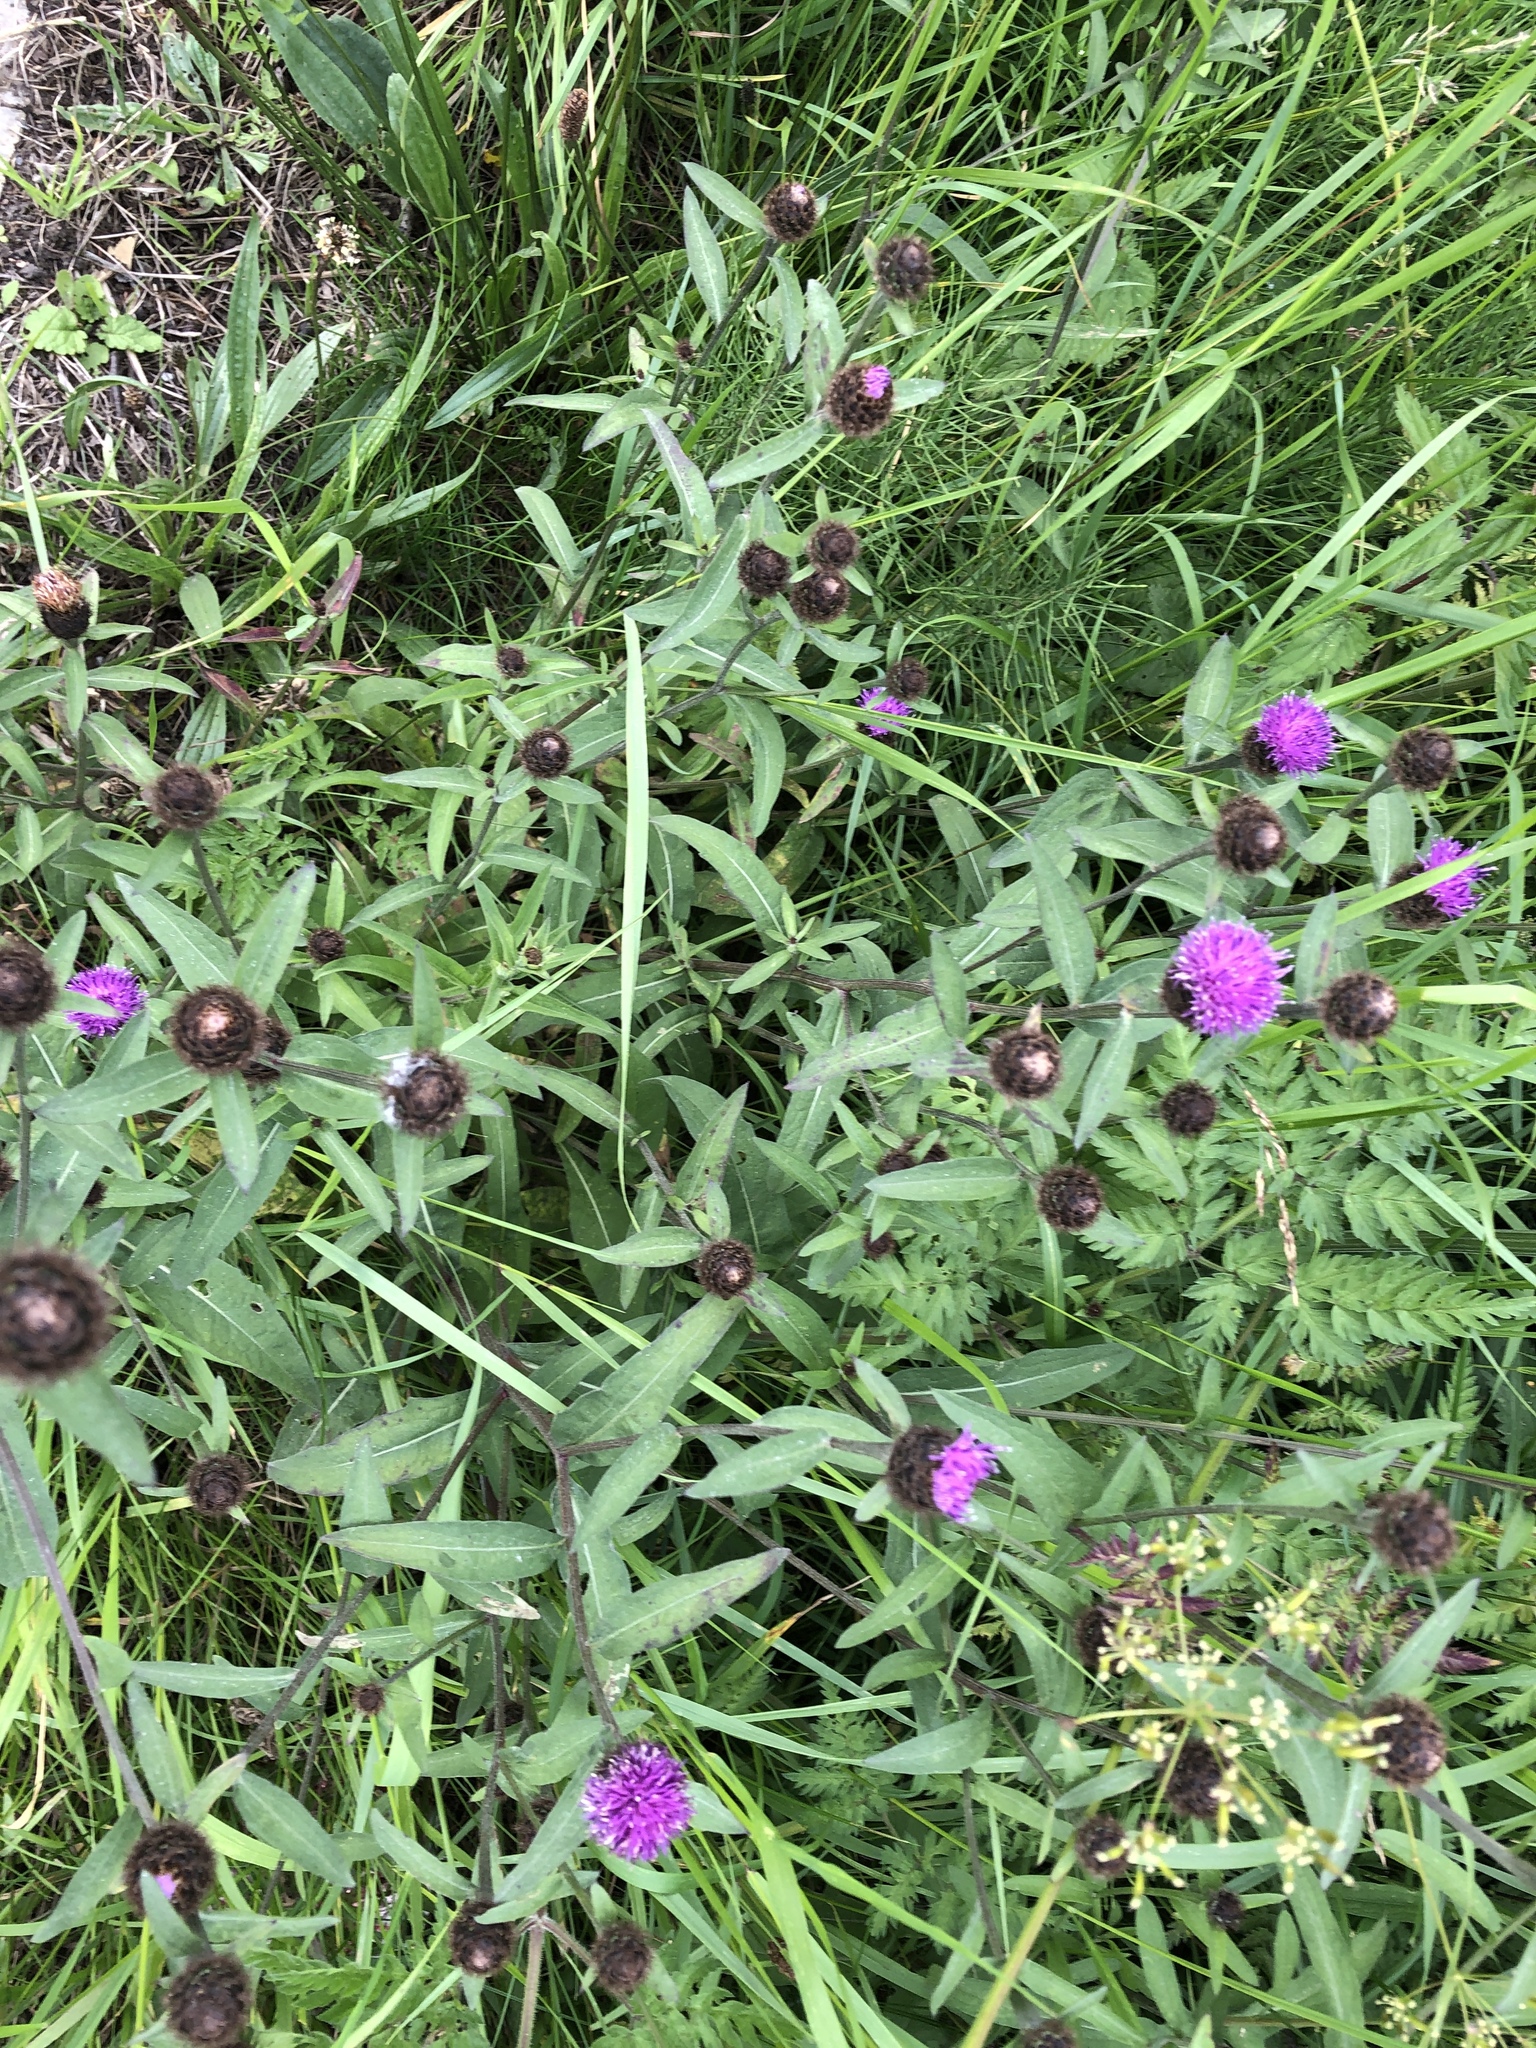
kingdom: Plantae
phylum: Tracheophyta
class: Magnoliopsida
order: Asterales
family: Asteraceae
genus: Centaurea
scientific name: Centaurea nigra
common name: Lesser knapweed
